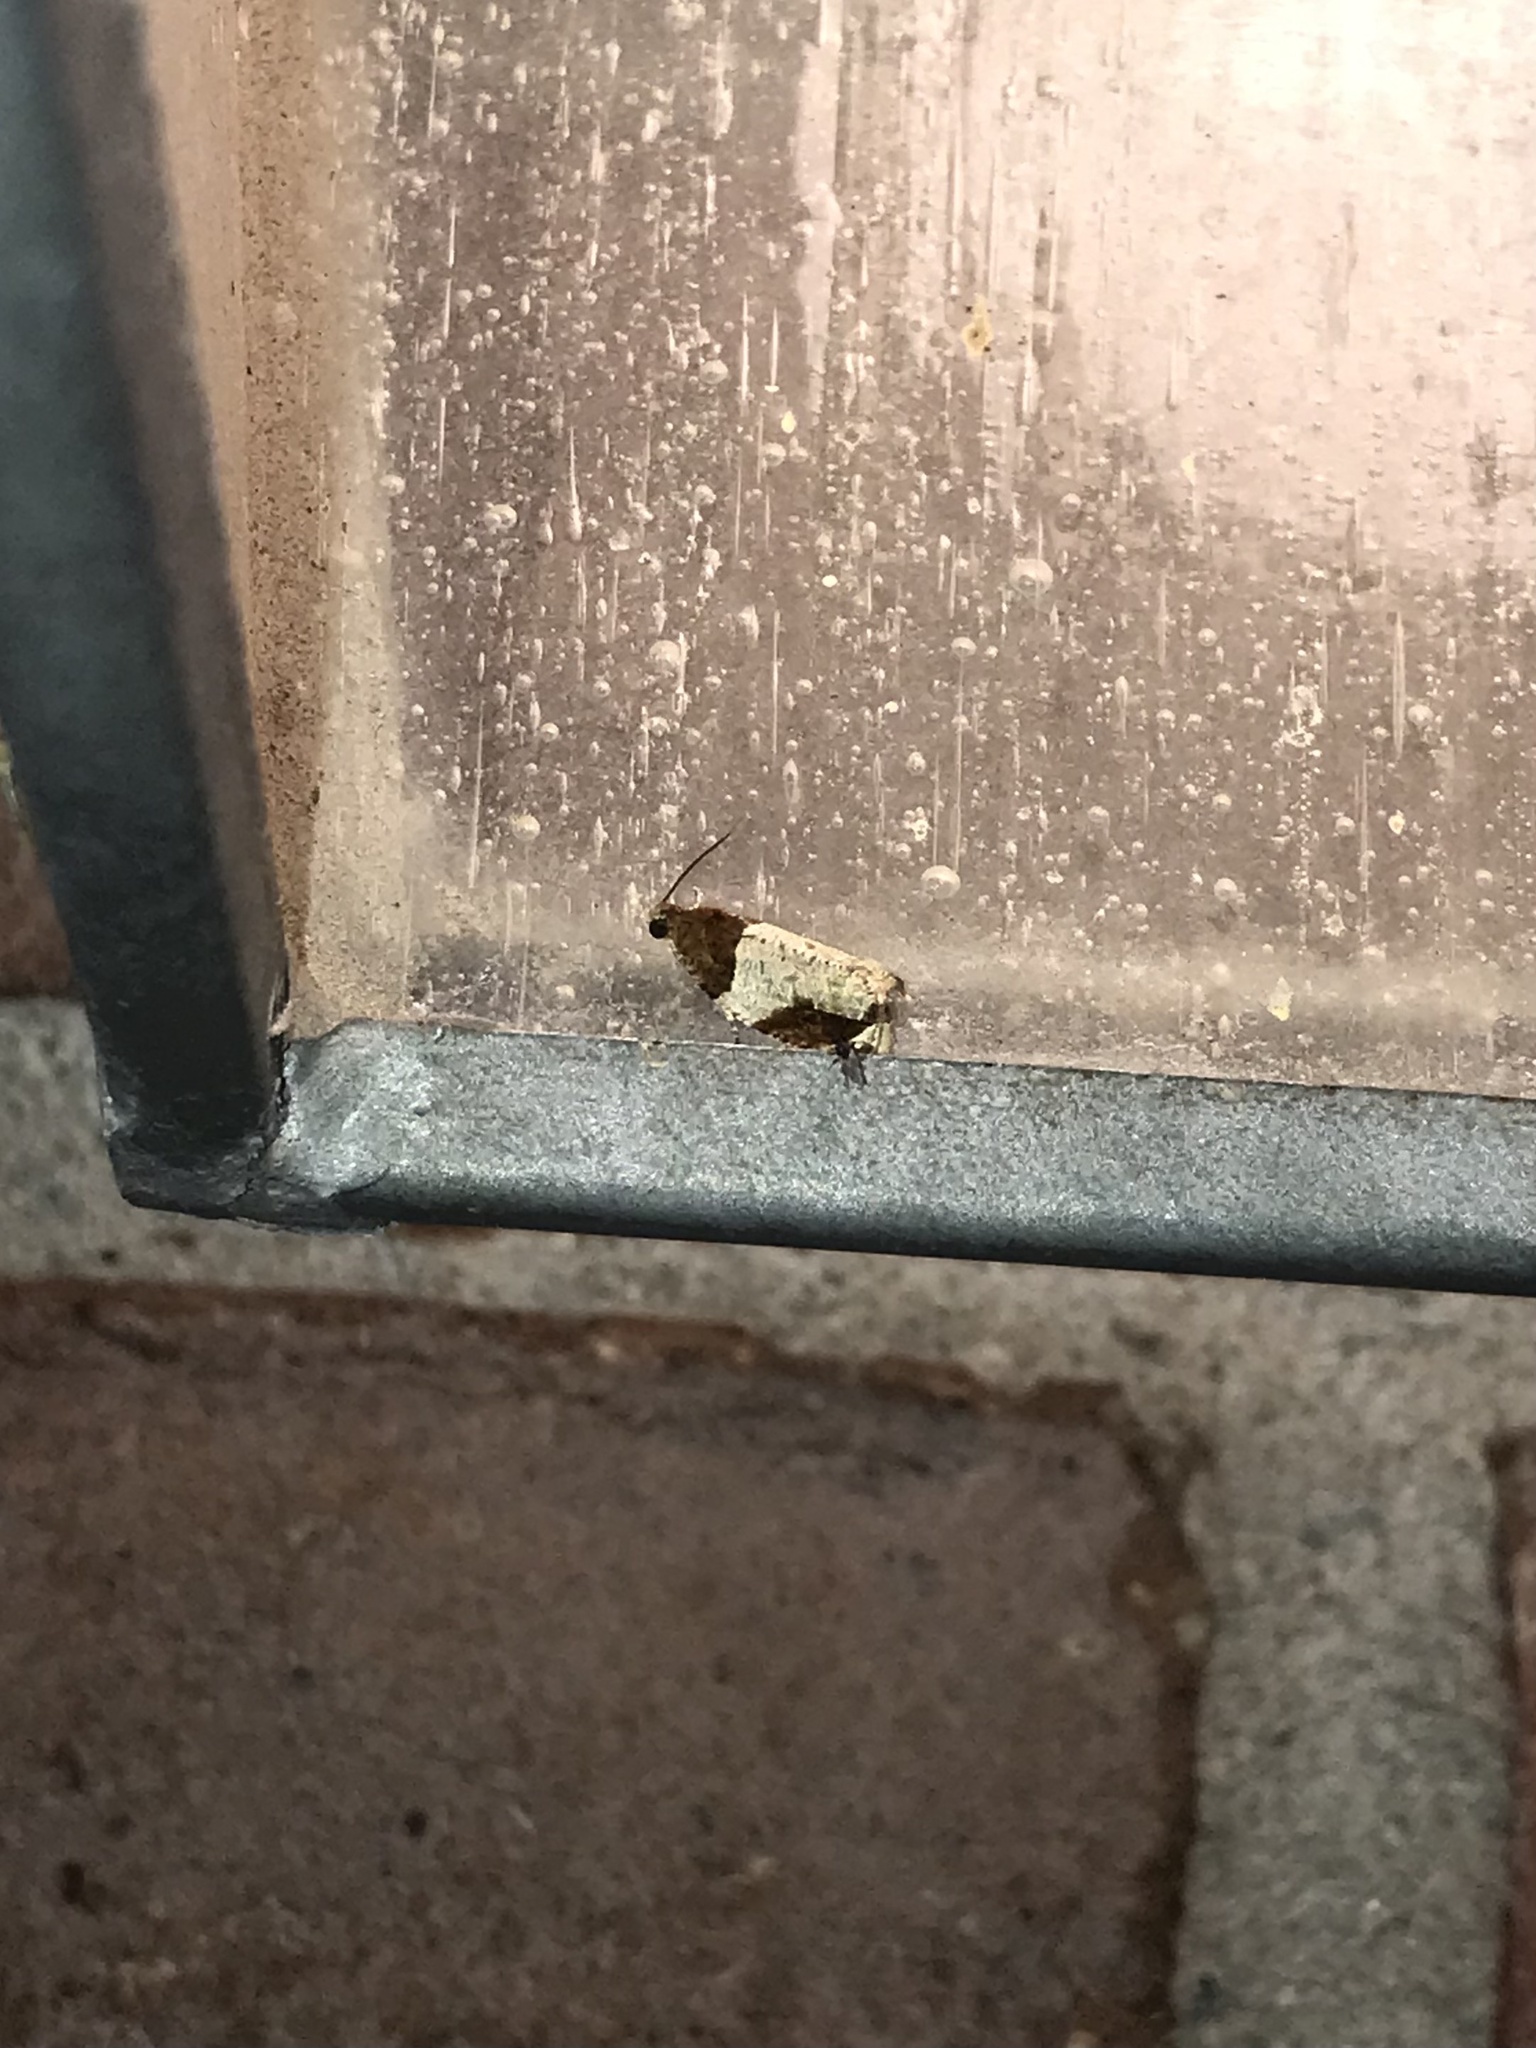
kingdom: Animalia
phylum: Arthropoda
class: Insecta
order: Lepidoptera
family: Tortricidae
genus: Olethreutes
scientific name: Olethreutes ferriferana
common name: Hydrangea leaftier moth
